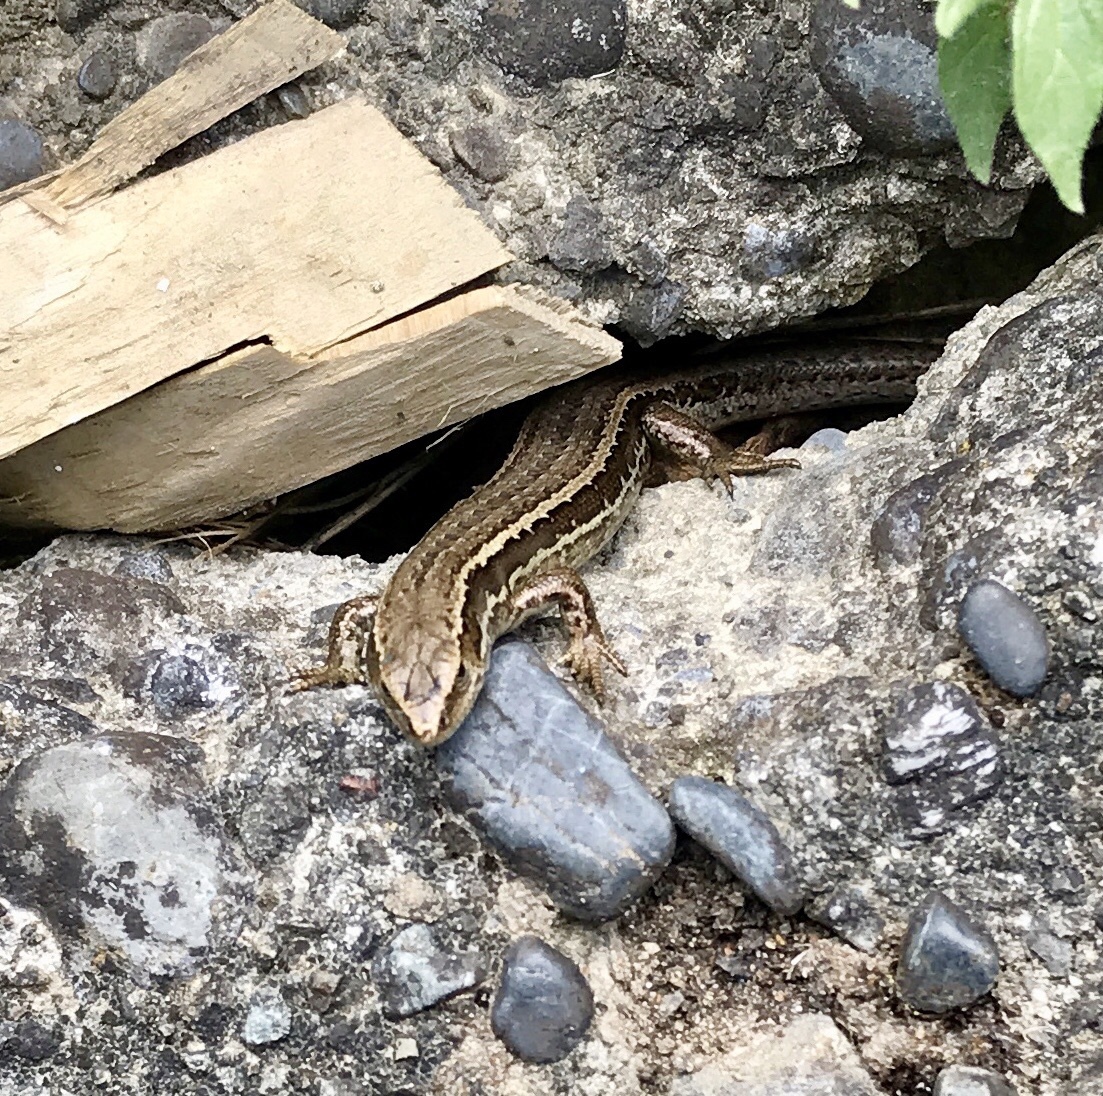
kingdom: Animalia
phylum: Chordata
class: Squamata
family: Scincidae
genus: Oligosoma
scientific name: Oligosoma polychroma
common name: Common new zealand skink
